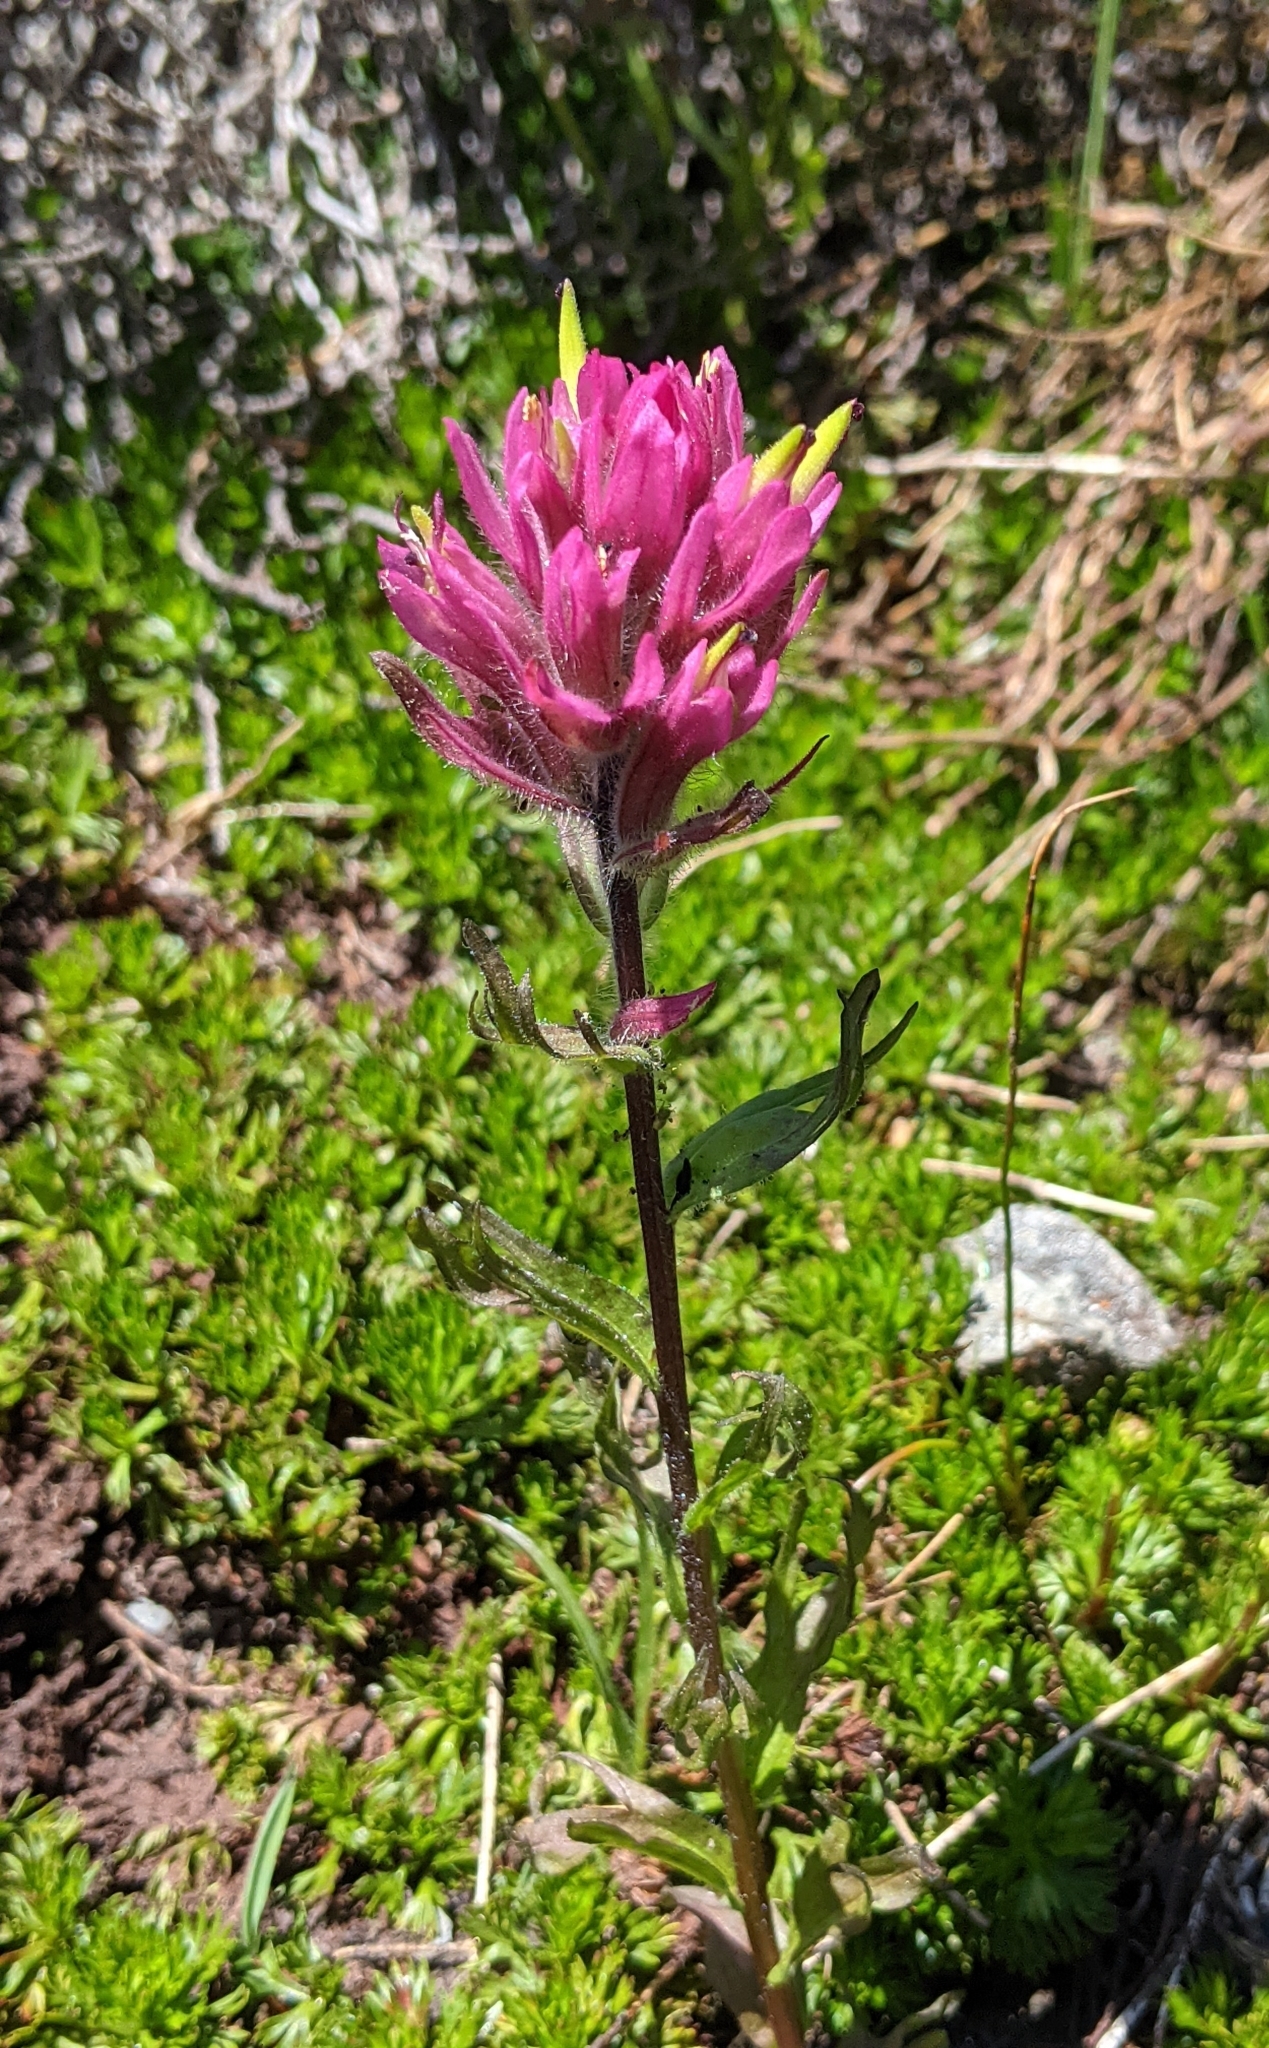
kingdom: Plantae
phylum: Tracheophyta
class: Magnoliopsida
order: Lamiales
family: Orobanchaceae
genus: Castilleja
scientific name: Castilleja parviflora
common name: Mountain paintbrush
